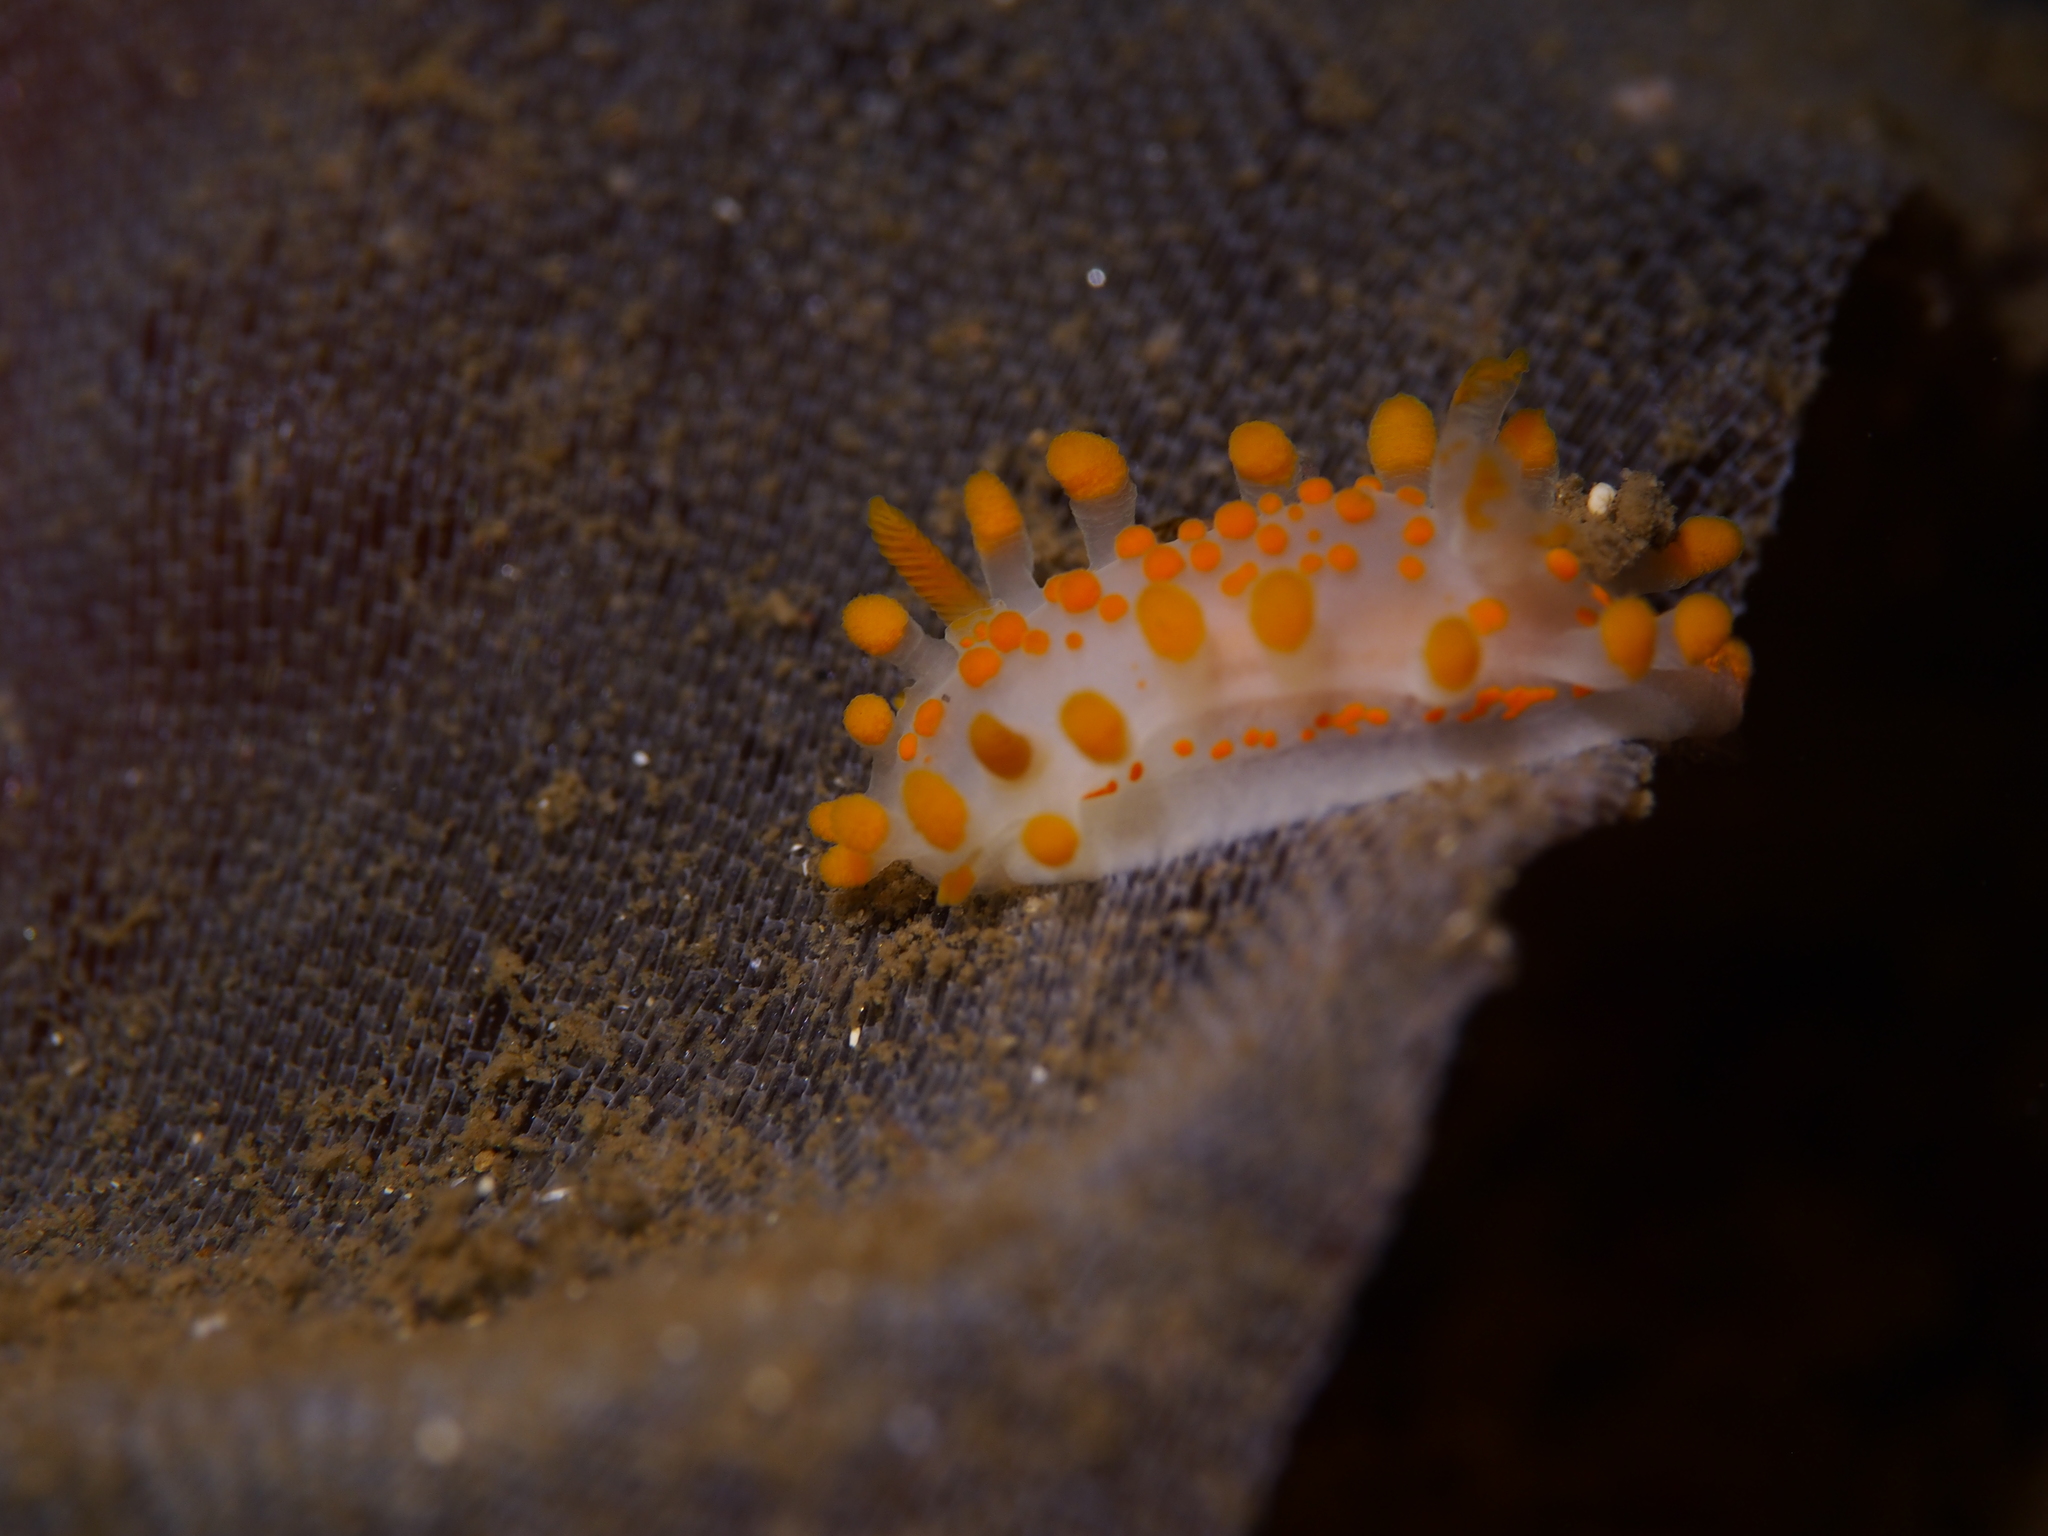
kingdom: Animalia
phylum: Mollusca
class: Gastropoda
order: Nudibranchia
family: Polyceridae
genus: Limacia
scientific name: Limacia clavigera
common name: Orange-clubbed sea slug
